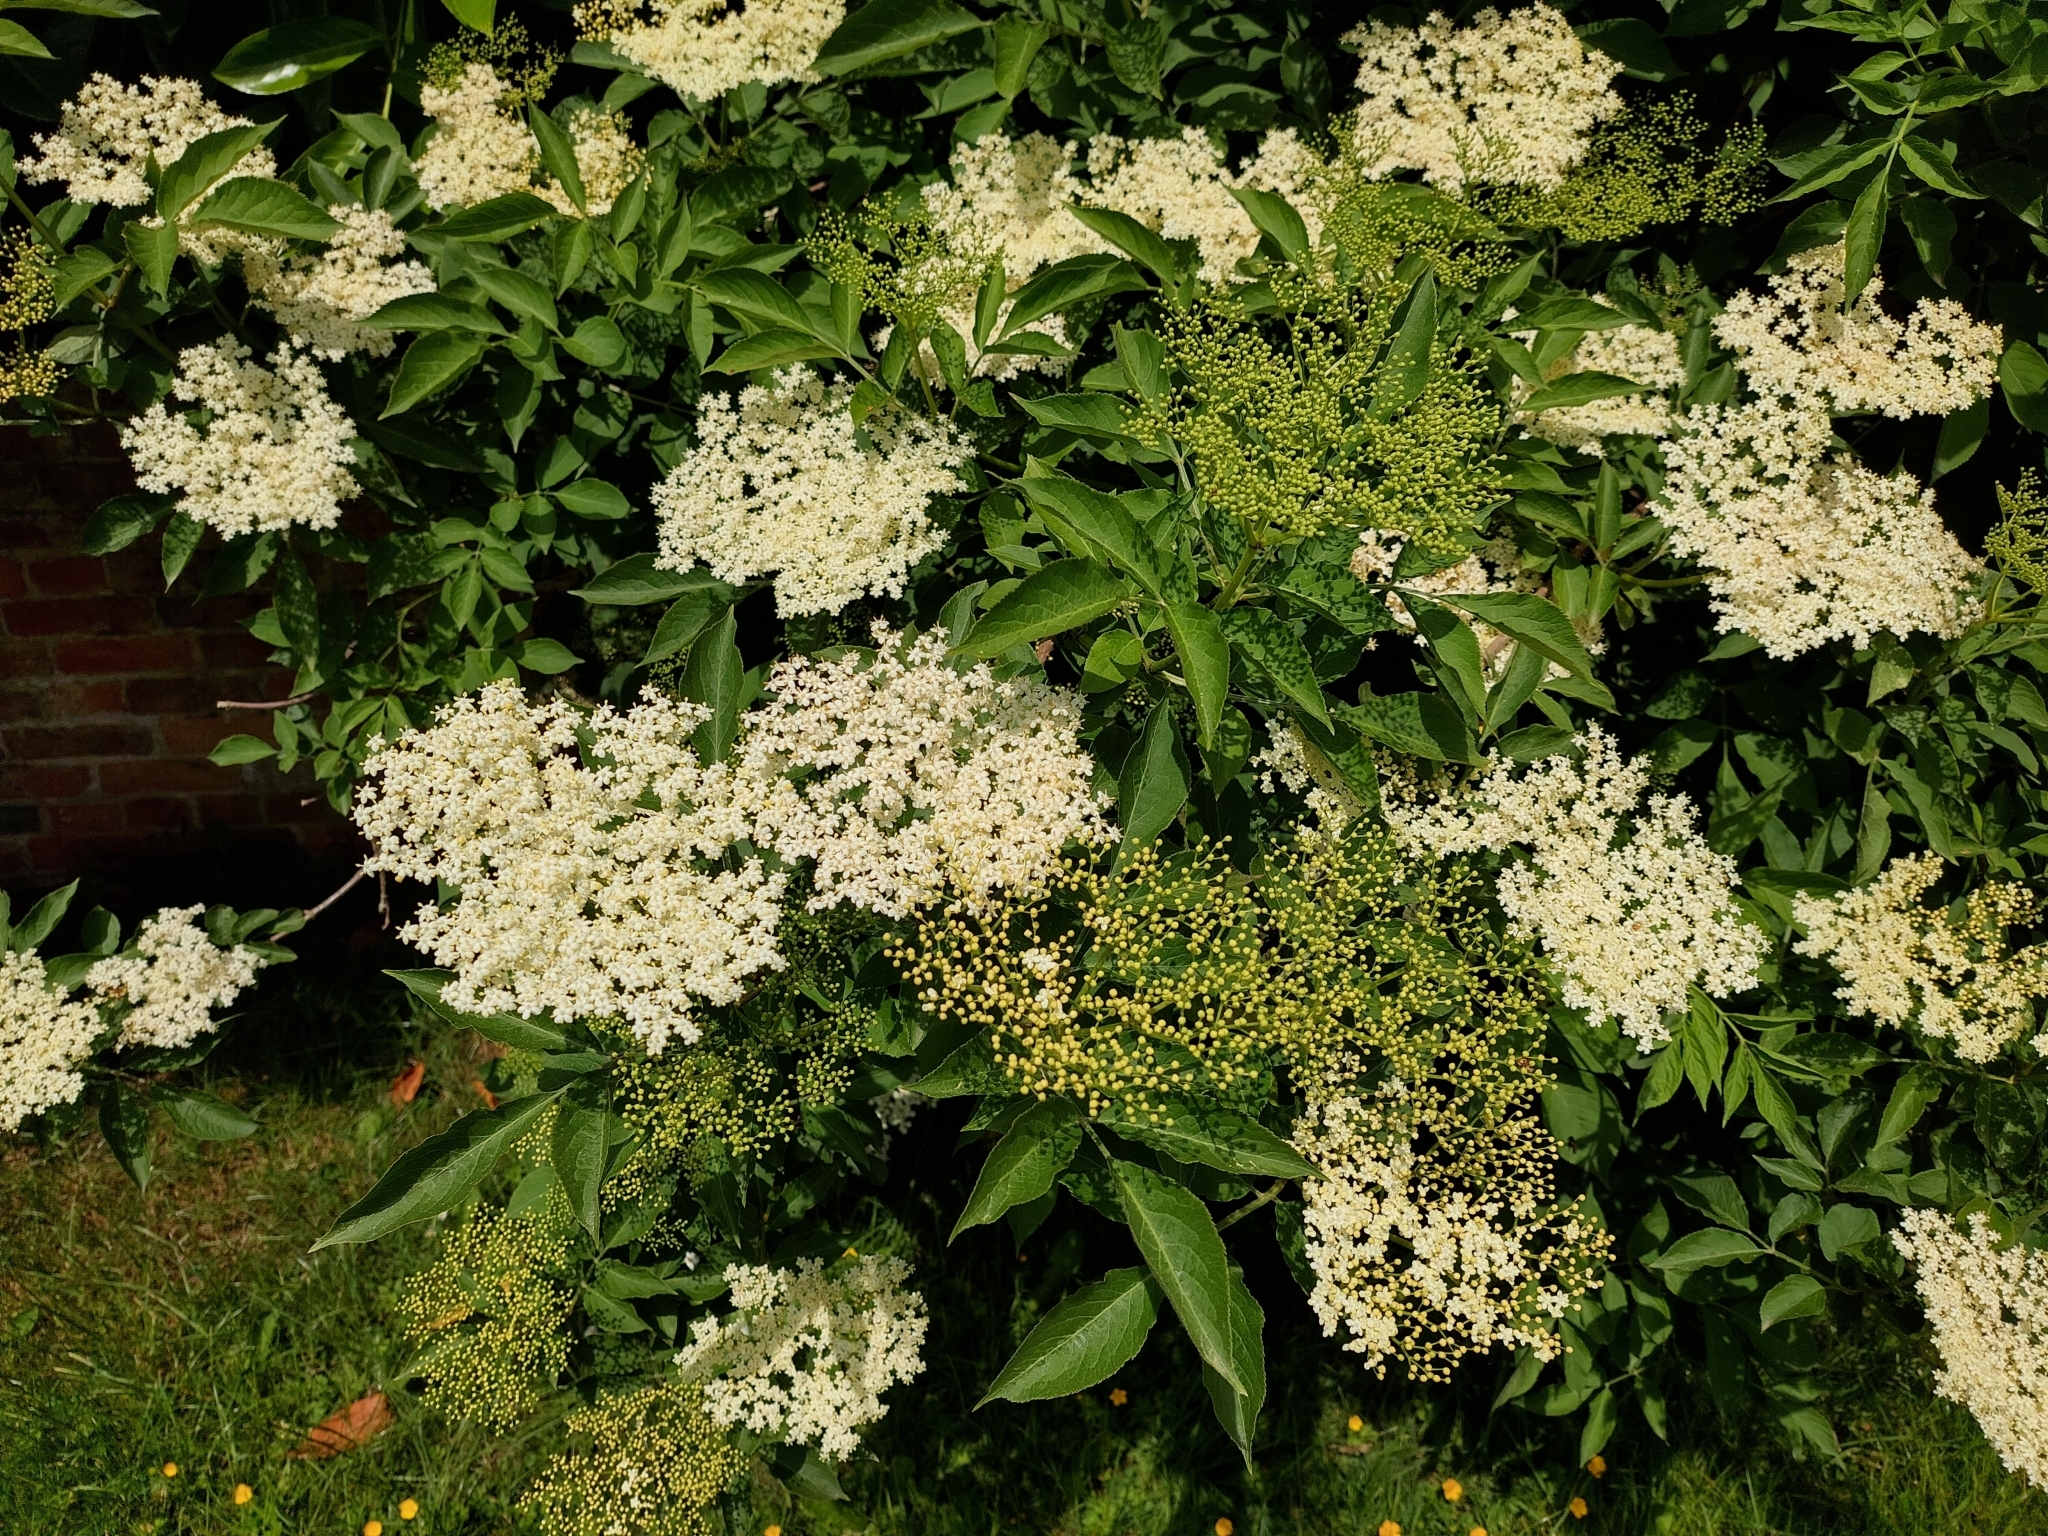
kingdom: Plantae
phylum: Tracheophyta
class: Magnoliopsida
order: Dipsacales
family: Viburnaceae
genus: Sambucus
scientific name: Sambucus nigra
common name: Elder
